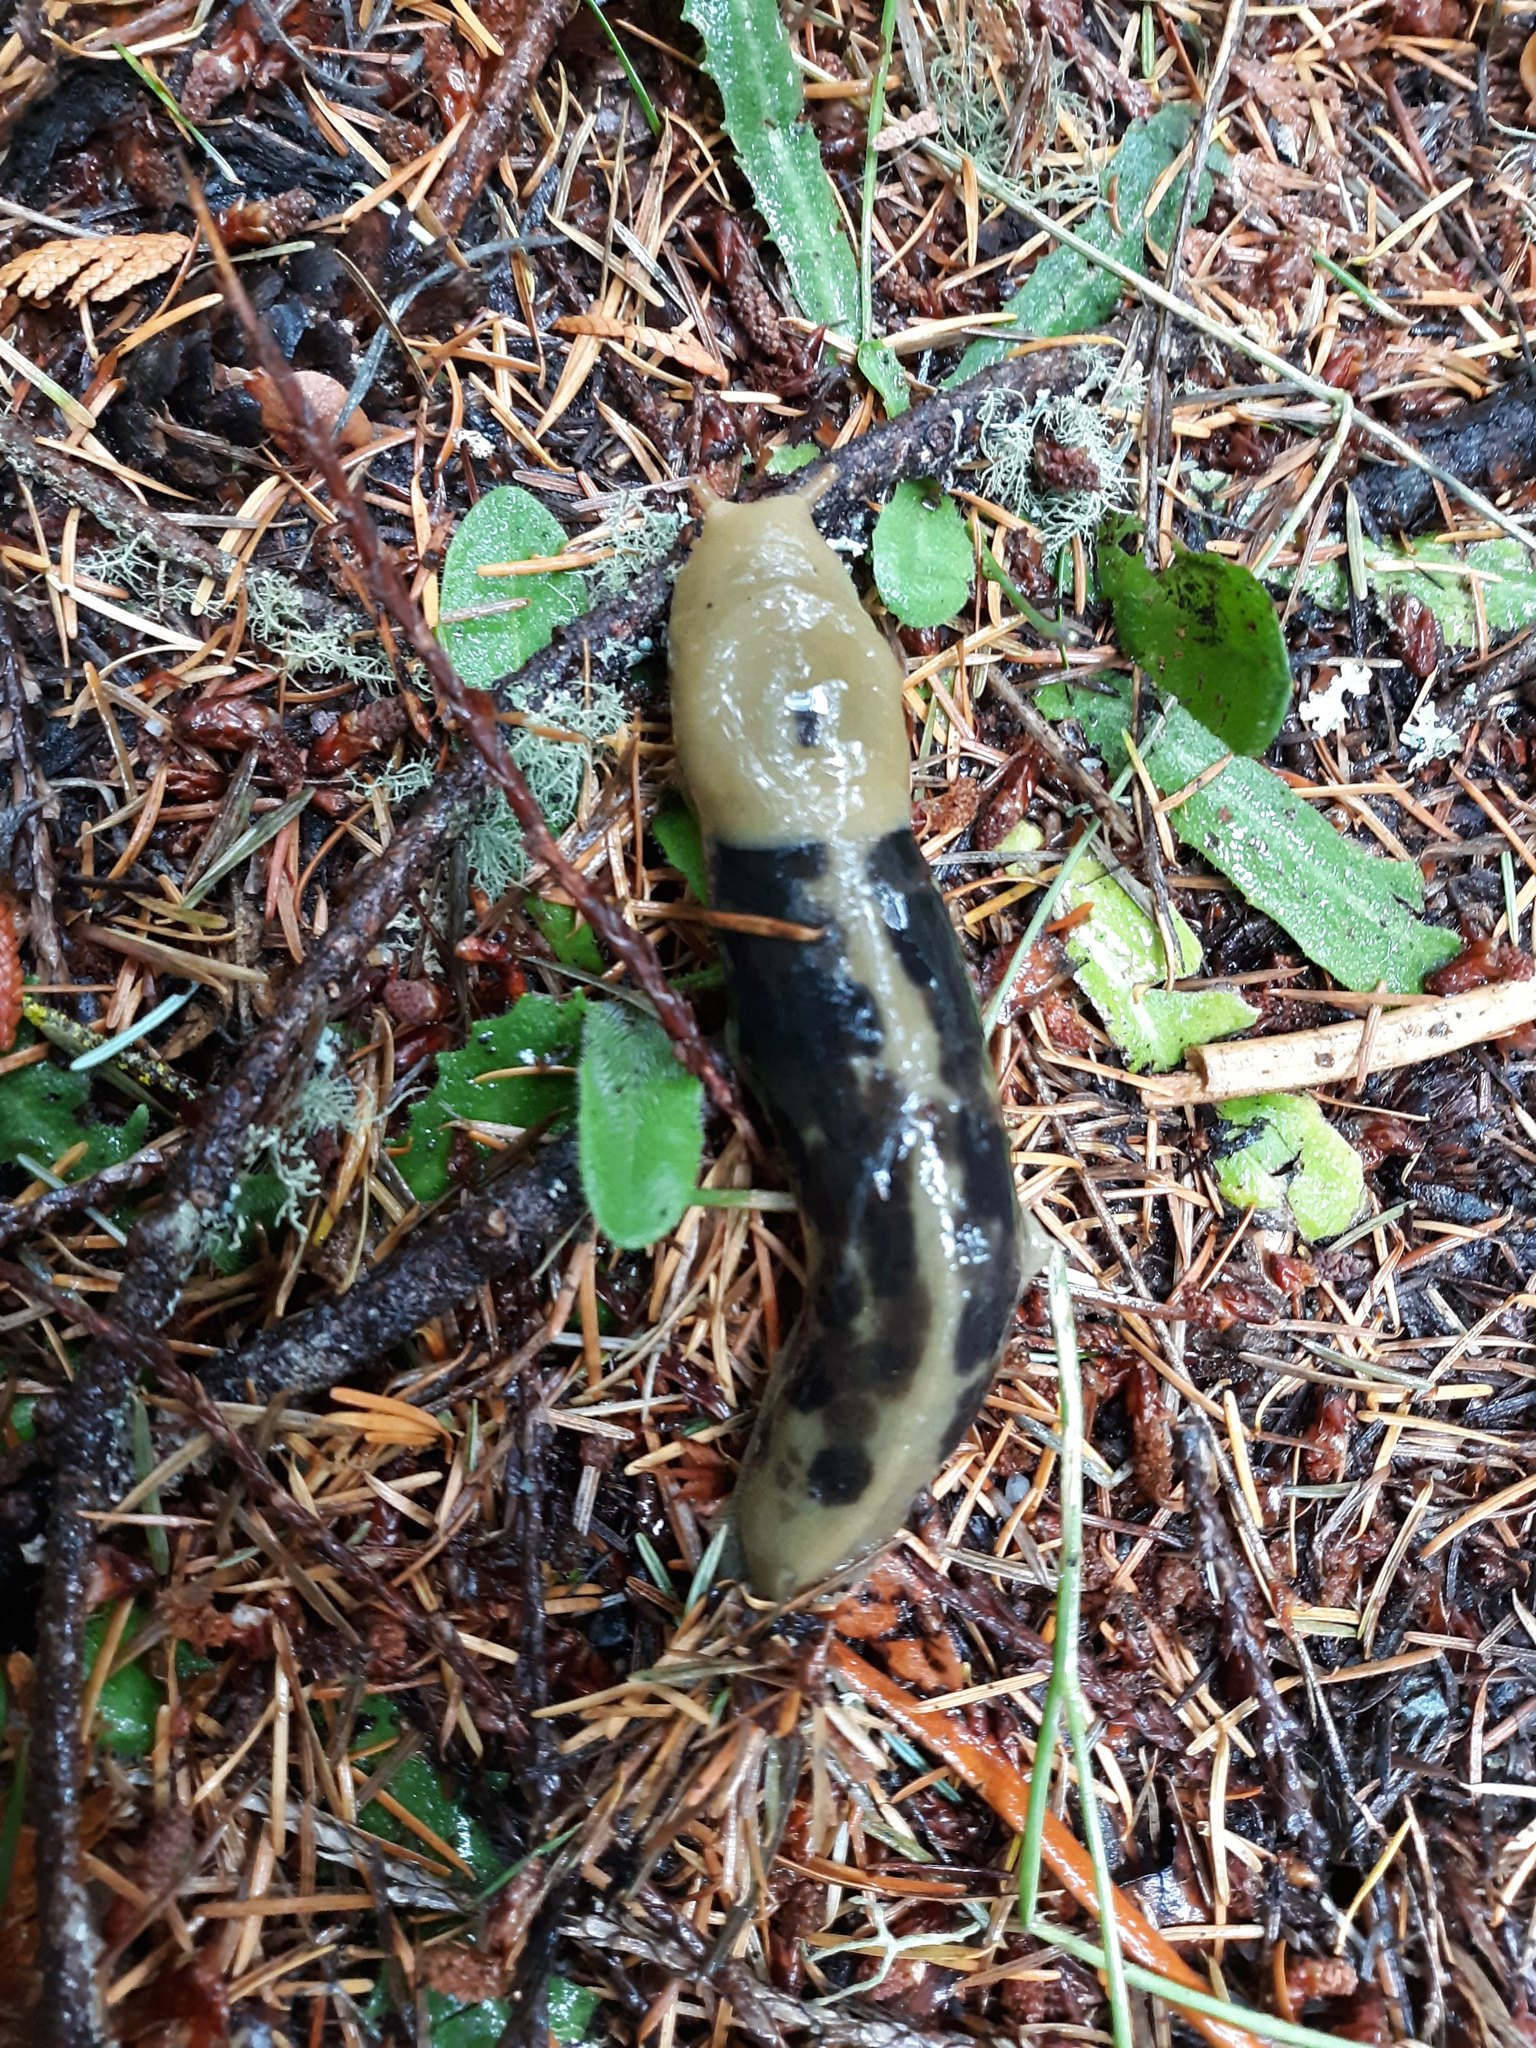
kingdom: Animalia
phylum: Mollusca
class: Gastropoda
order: Stylommatophora
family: Ariolimacidae
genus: Ariolimax
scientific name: Ariolimax columbianus
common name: Pacific banana slug
